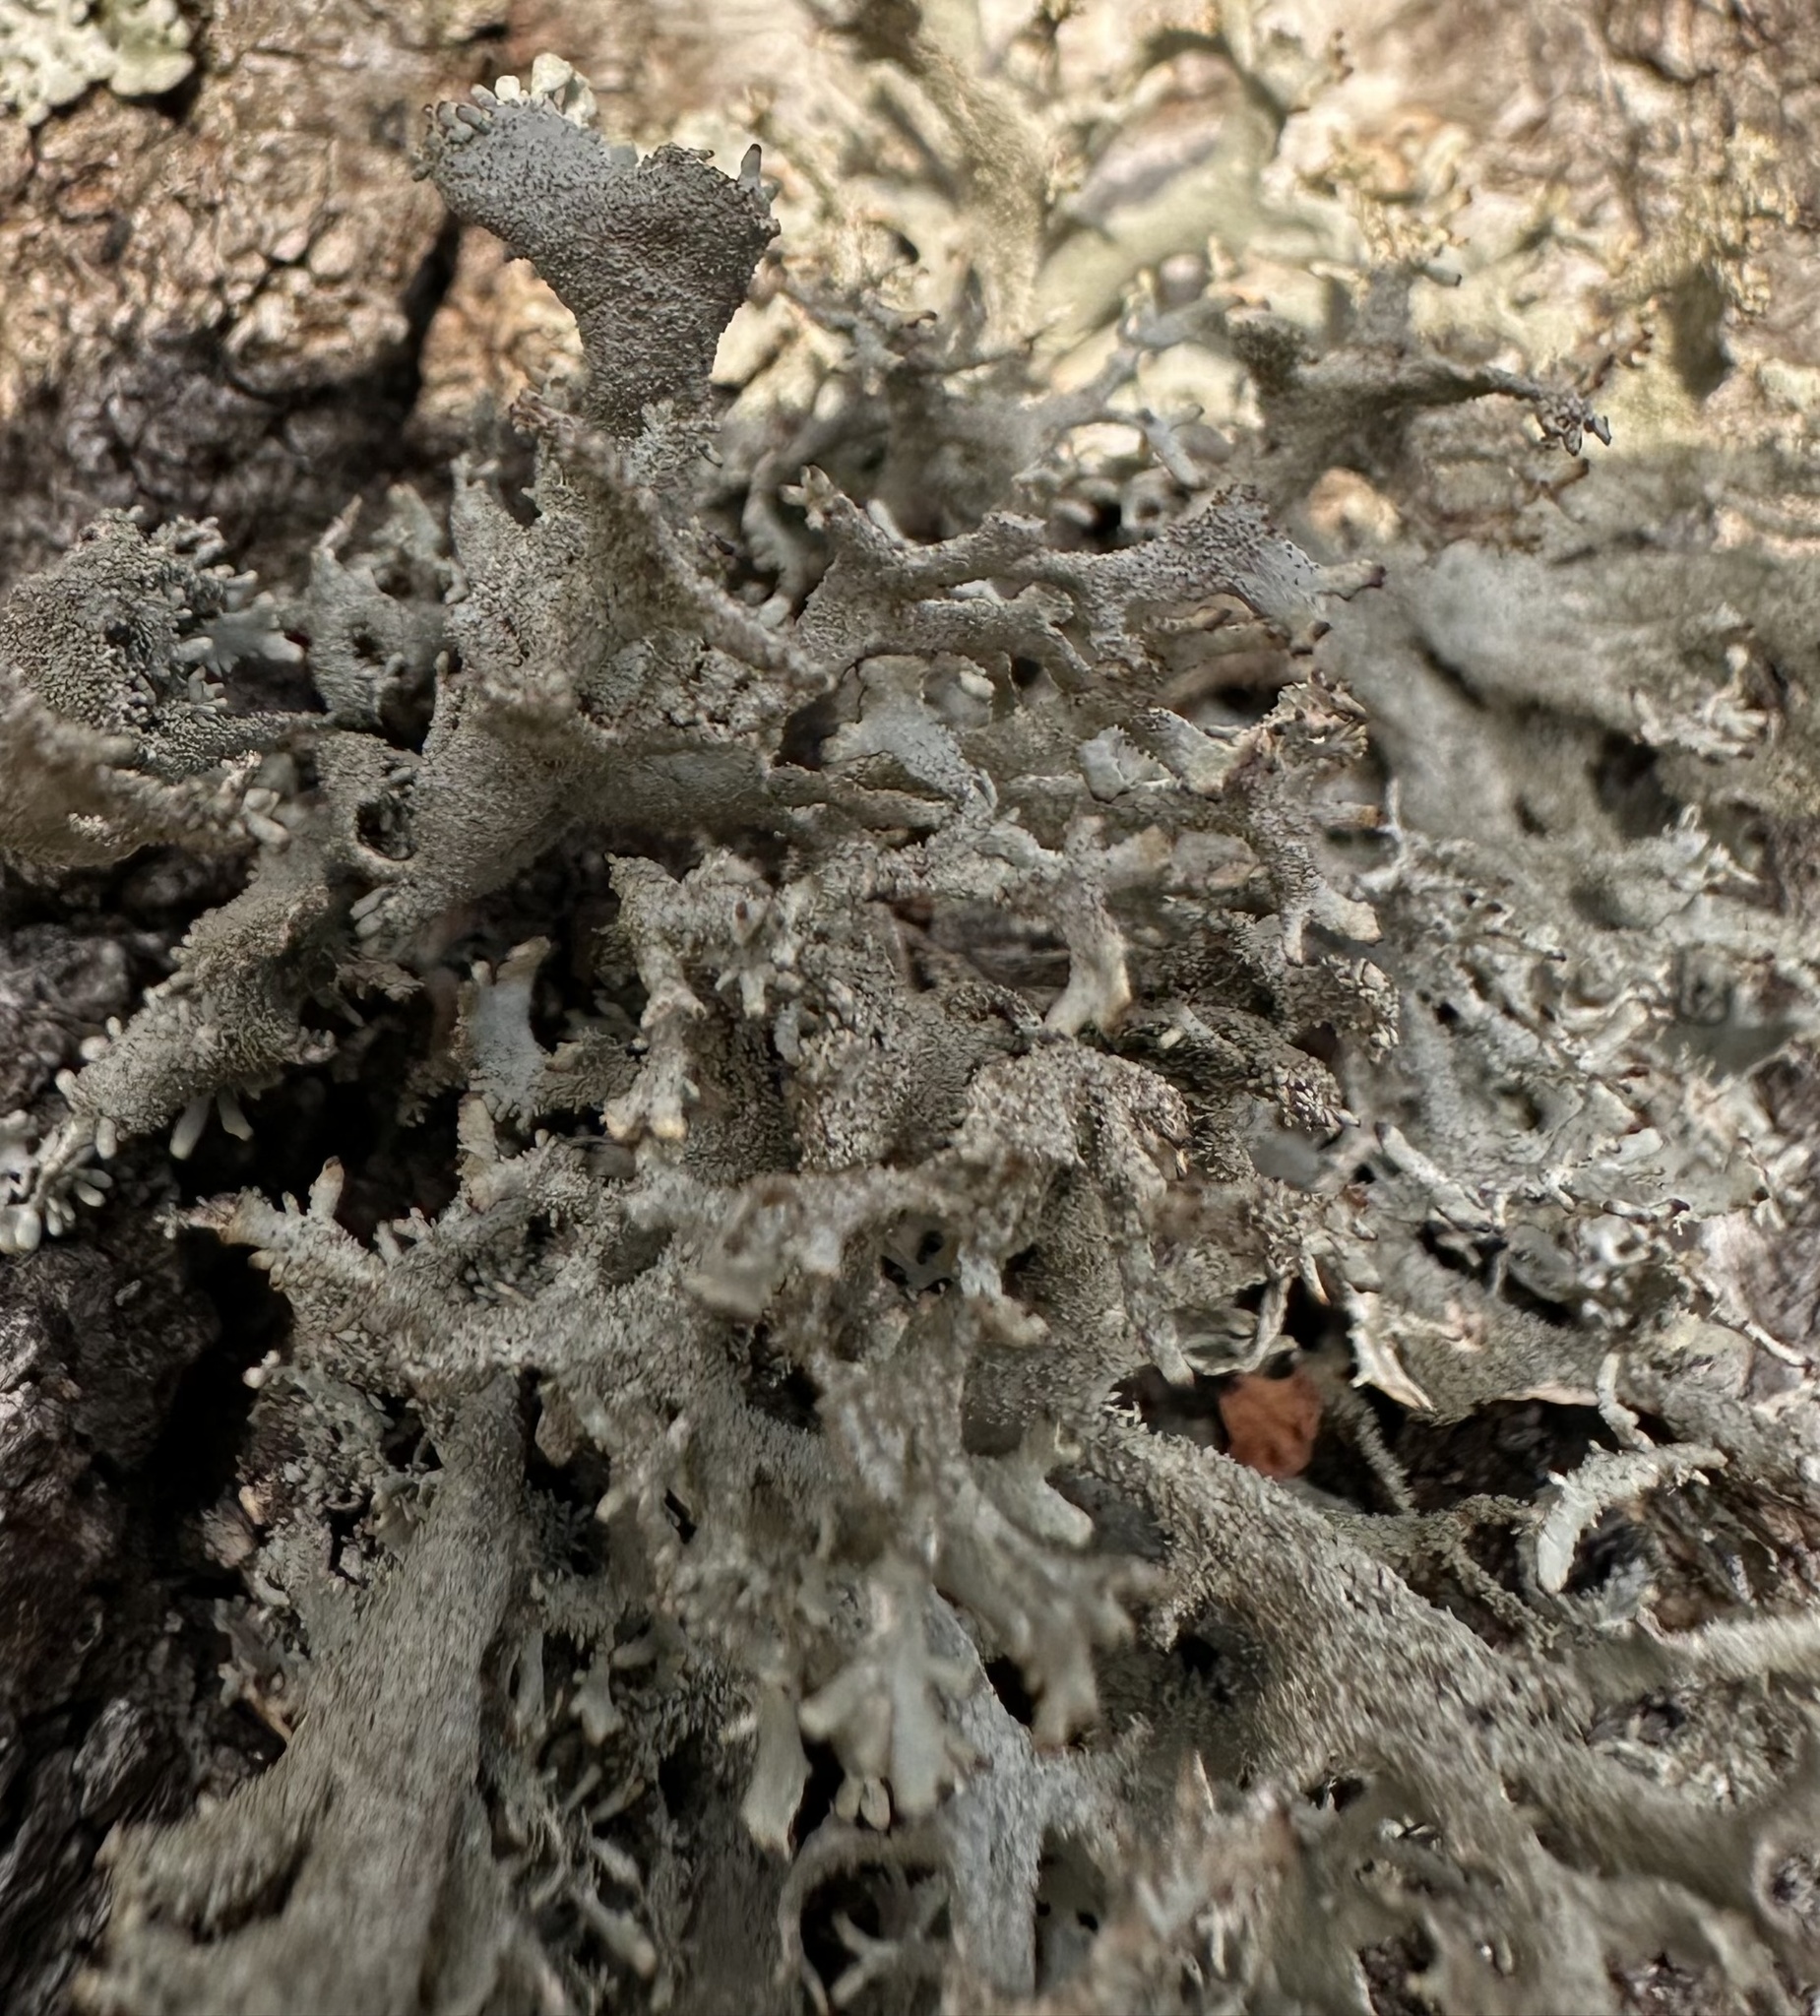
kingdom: Fungi
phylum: Ascomycota
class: Lecanoromycetes
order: Lecanorales
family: Parmeliaceae
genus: Pseudevernia
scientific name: Pseudevernia furfuracea
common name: Tree moss
